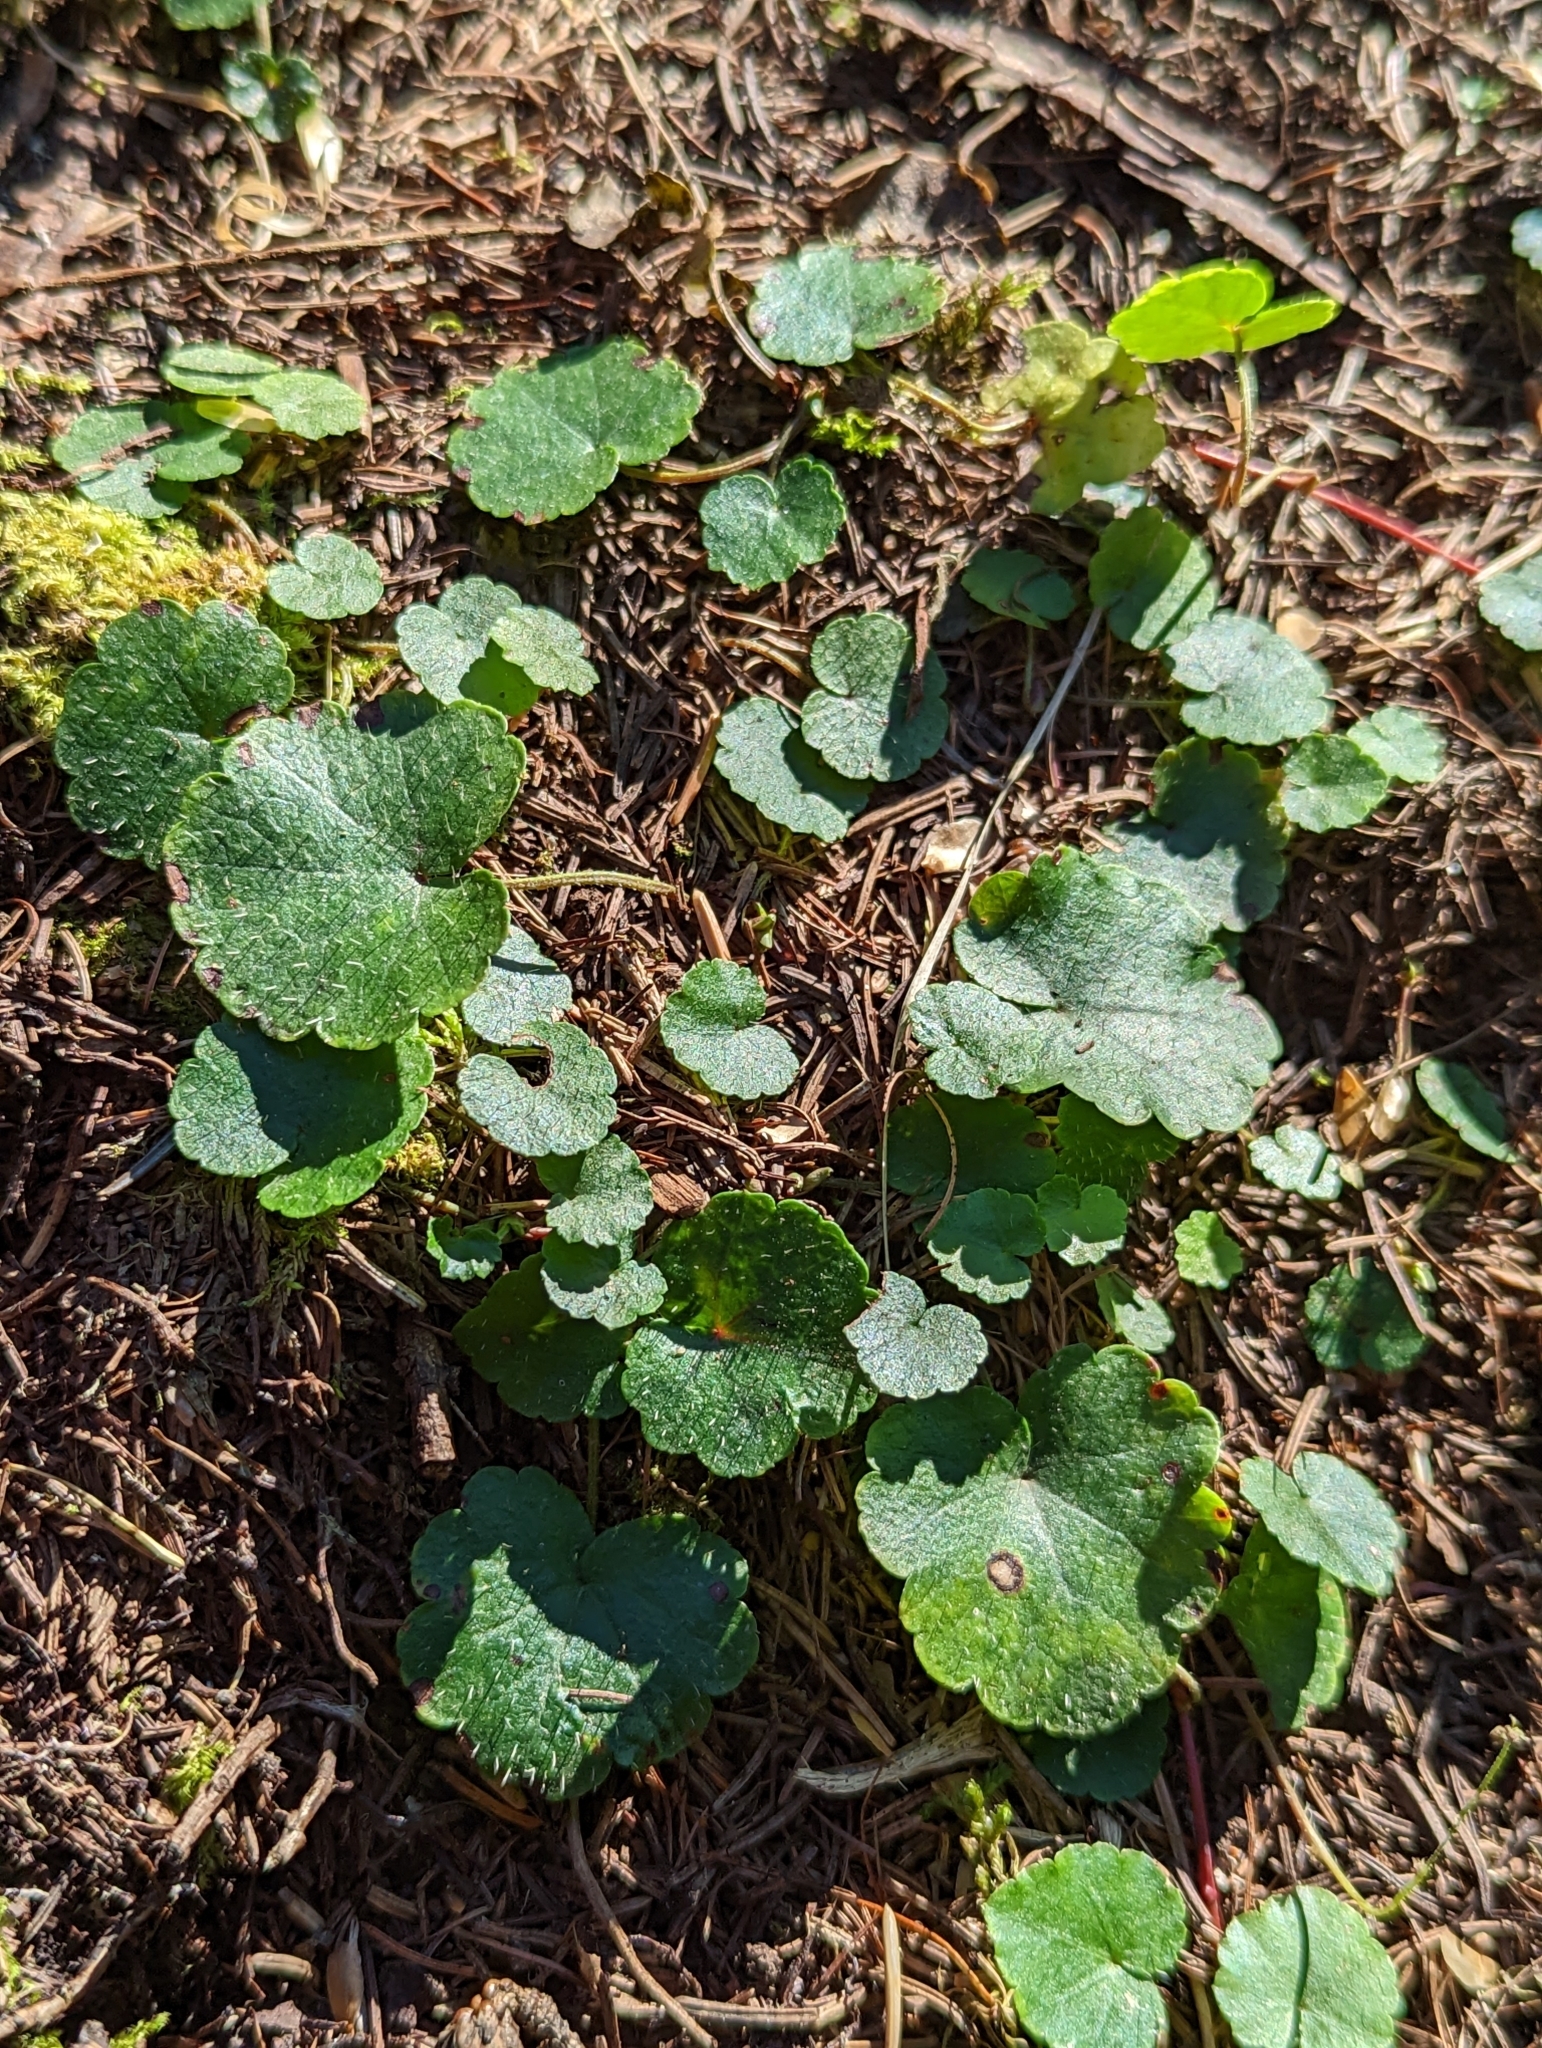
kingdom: Plantae
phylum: Tracheophyta
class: Magnoliopsida
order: Saxifragales
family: Saxifragaceae
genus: Mitella
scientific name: Mitella nuda
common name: Bare-stemmed bishop's-cap
